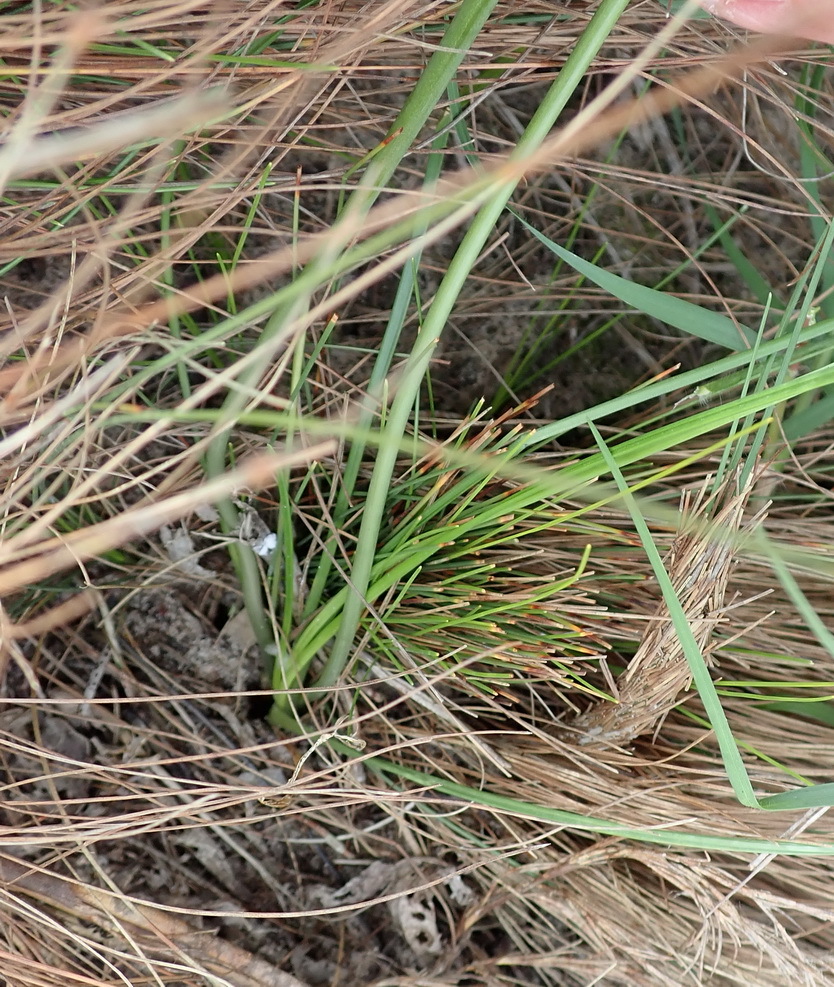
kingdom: Plantae
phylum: Tracheophyta
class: Liliopsida
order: Asparagales
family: Asparagaceae
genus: Ornithogalum
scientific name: Ornithogalum graminifolium
